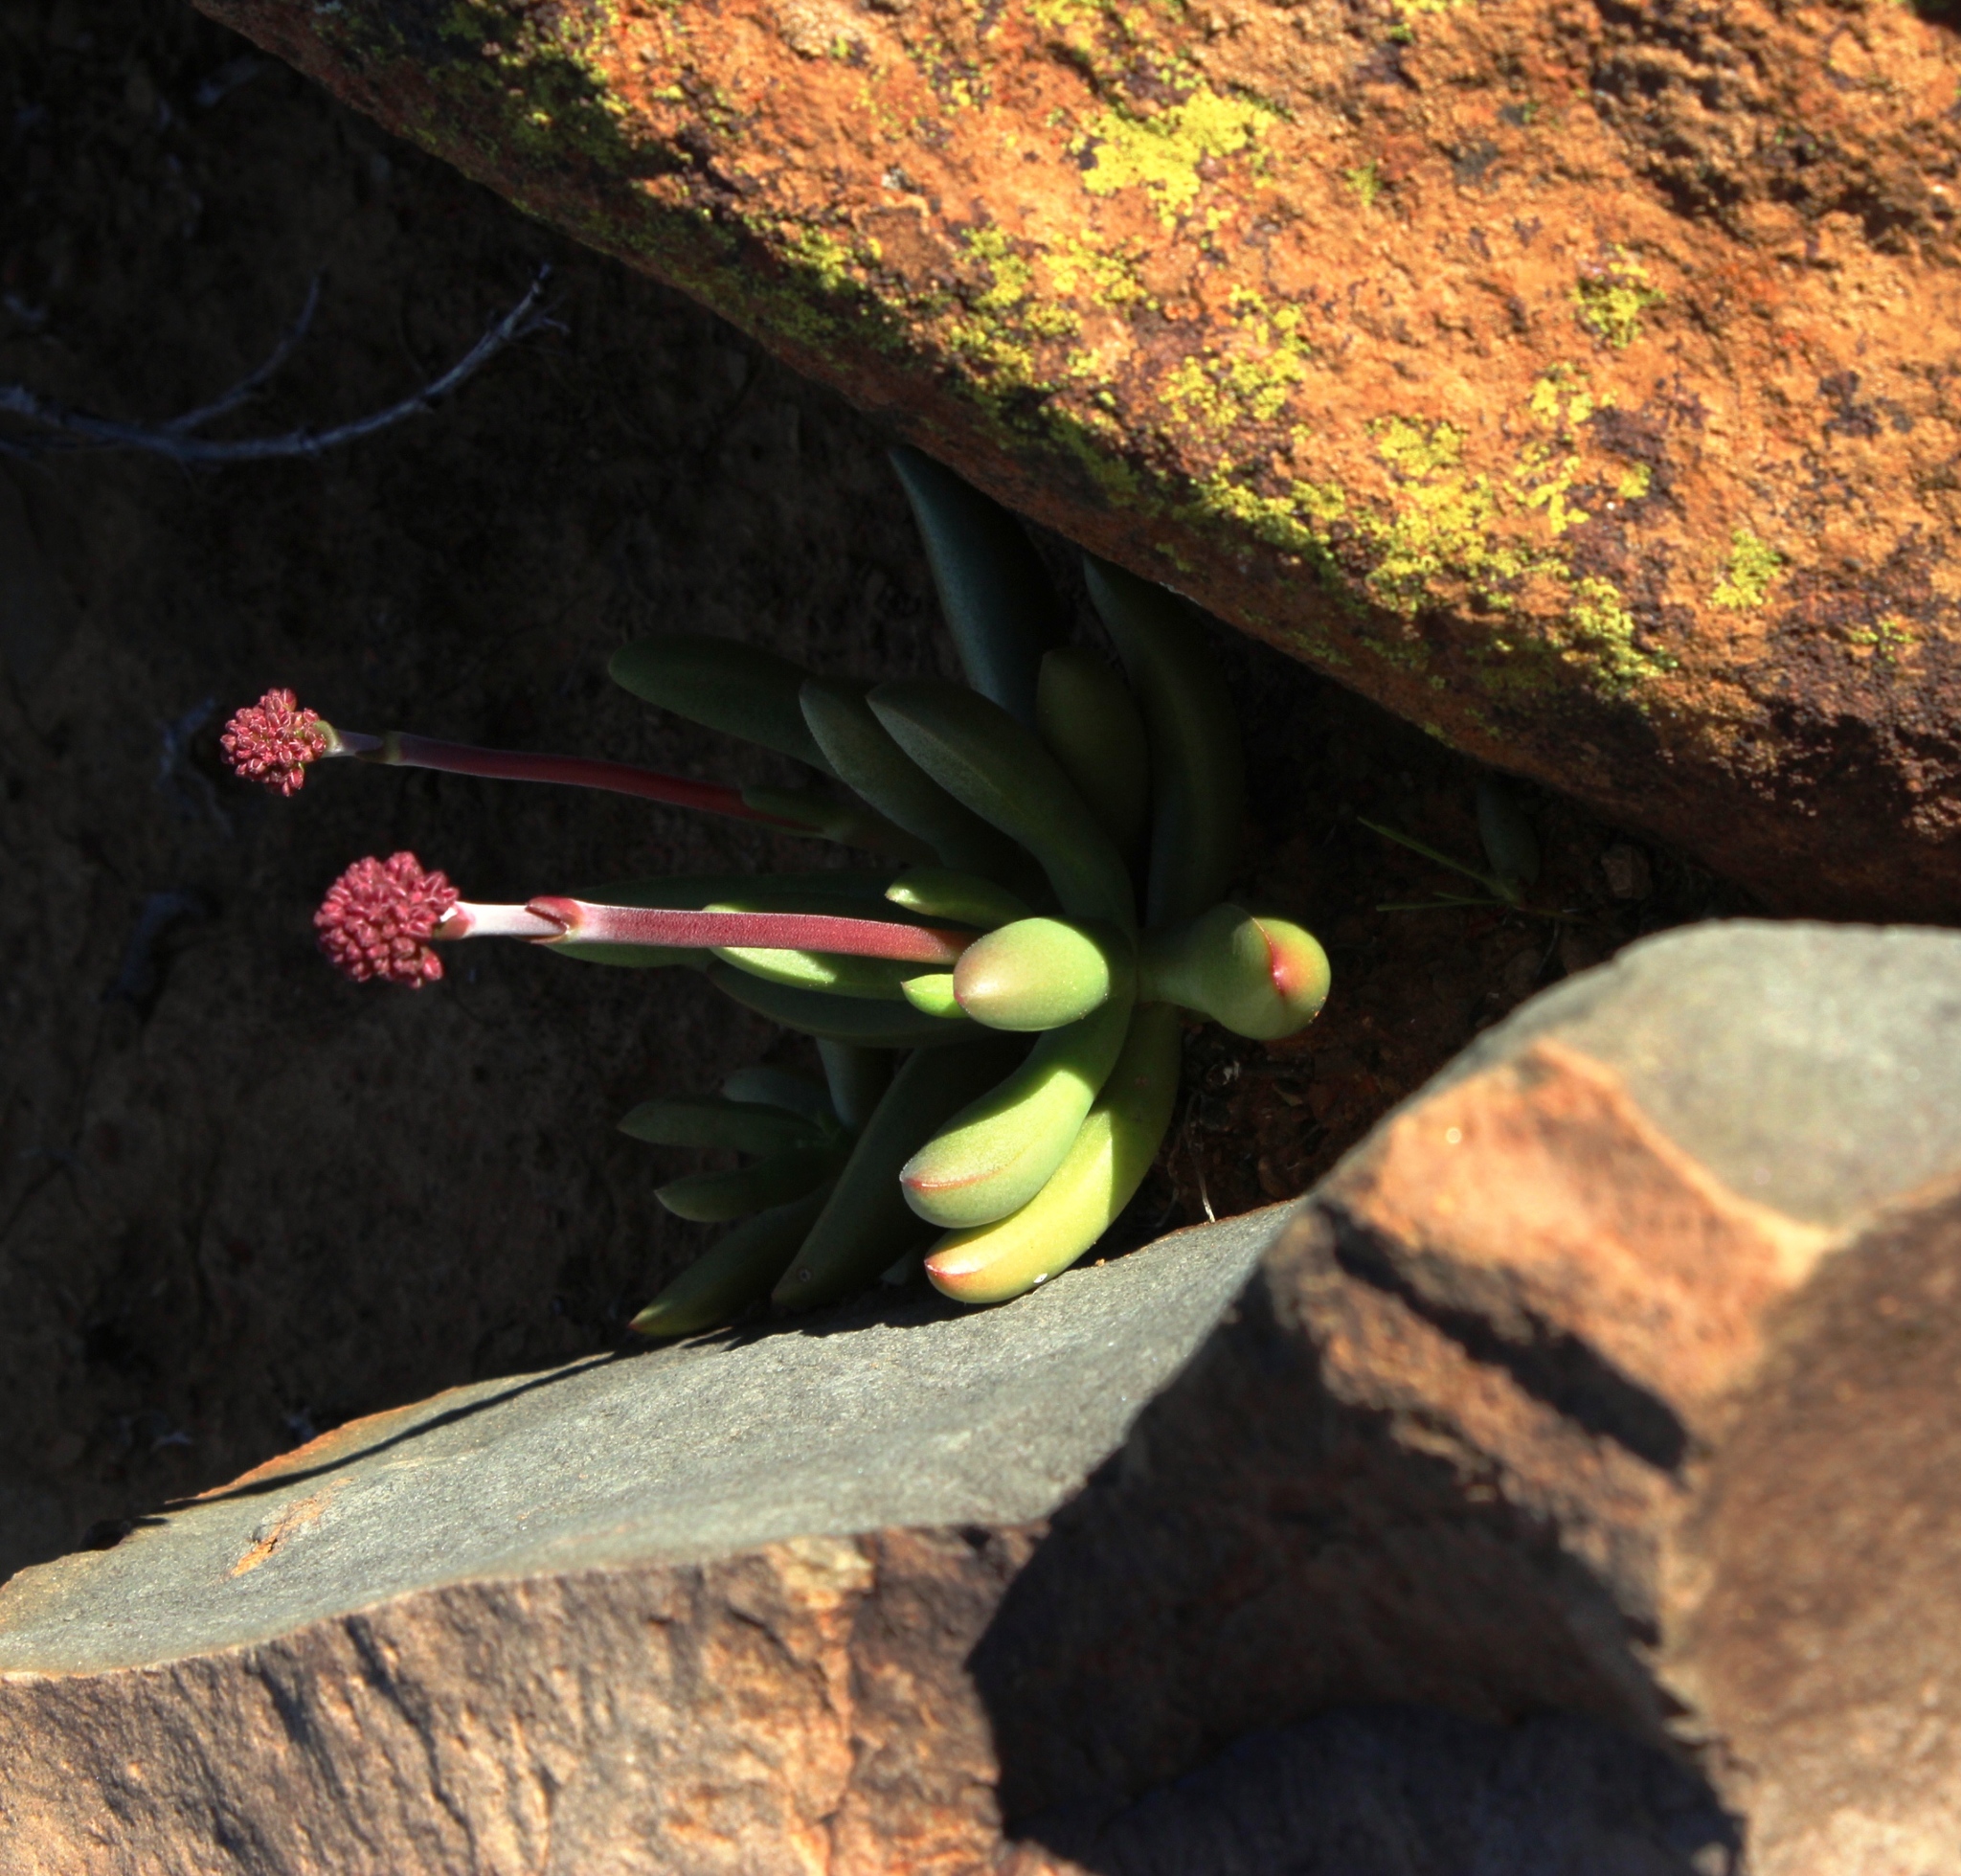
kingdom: Plantae
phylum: Tracheophyta
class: Magnoliopsida
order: Saxifragales
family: Crassulaceae
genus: Crassula
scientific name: Crassula clavata
